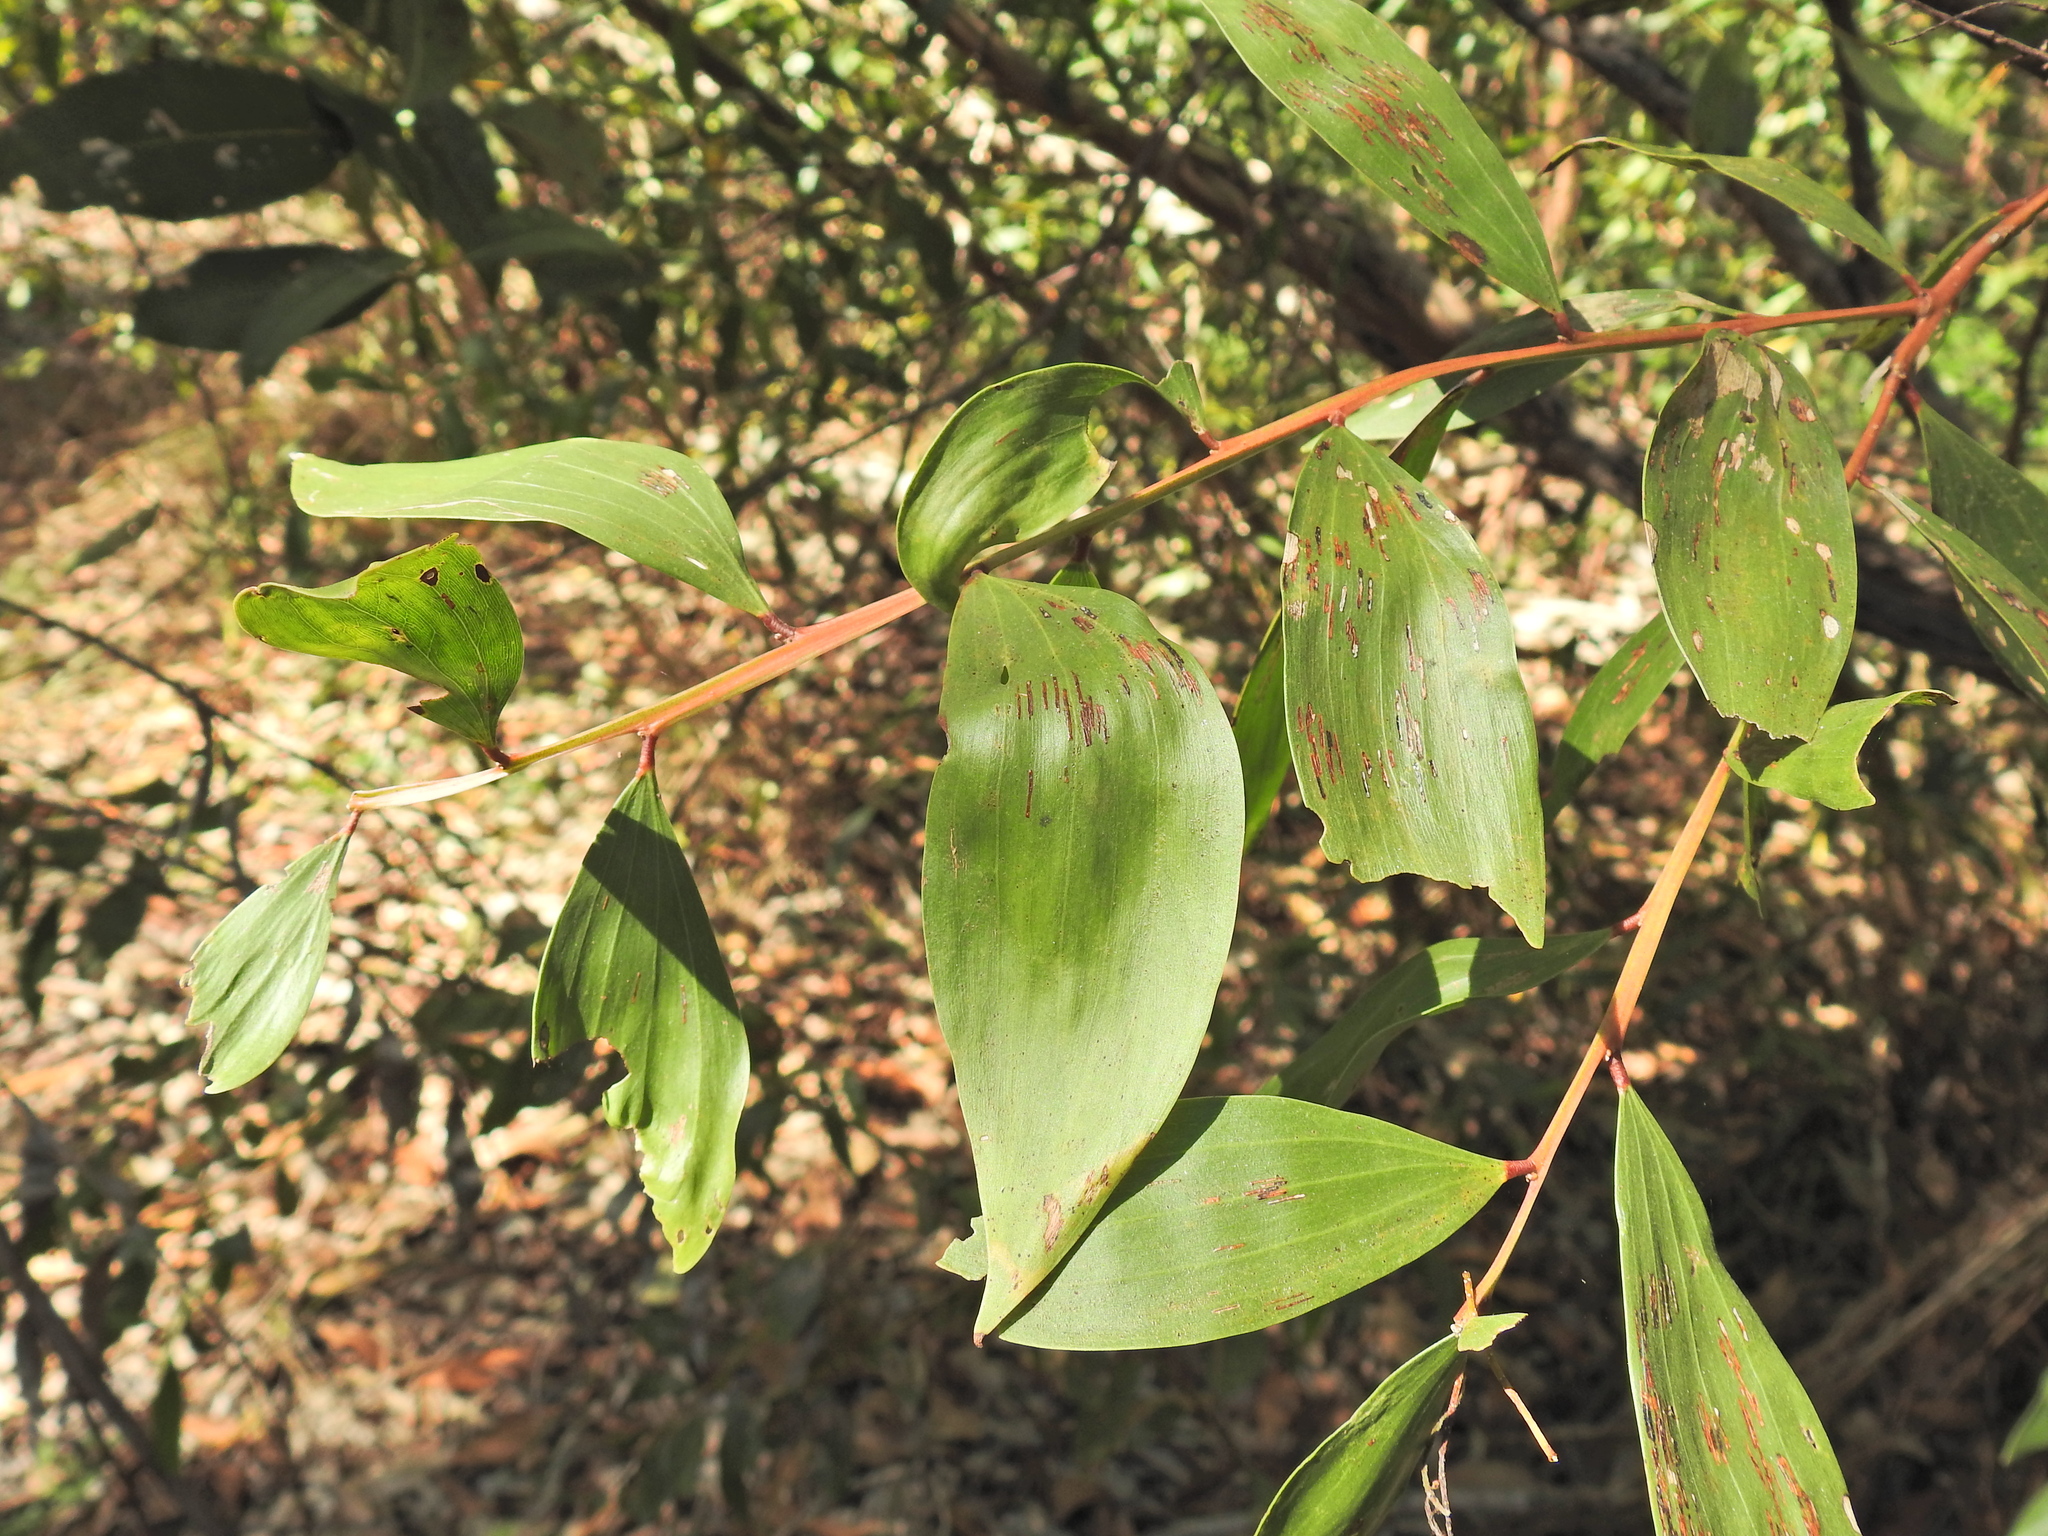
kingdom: Plantae
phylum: Tracheophyta
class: Magnoliopsida
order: Fabales
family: Fabaceae
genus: Acacia
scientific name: Acacia leiocalyx
